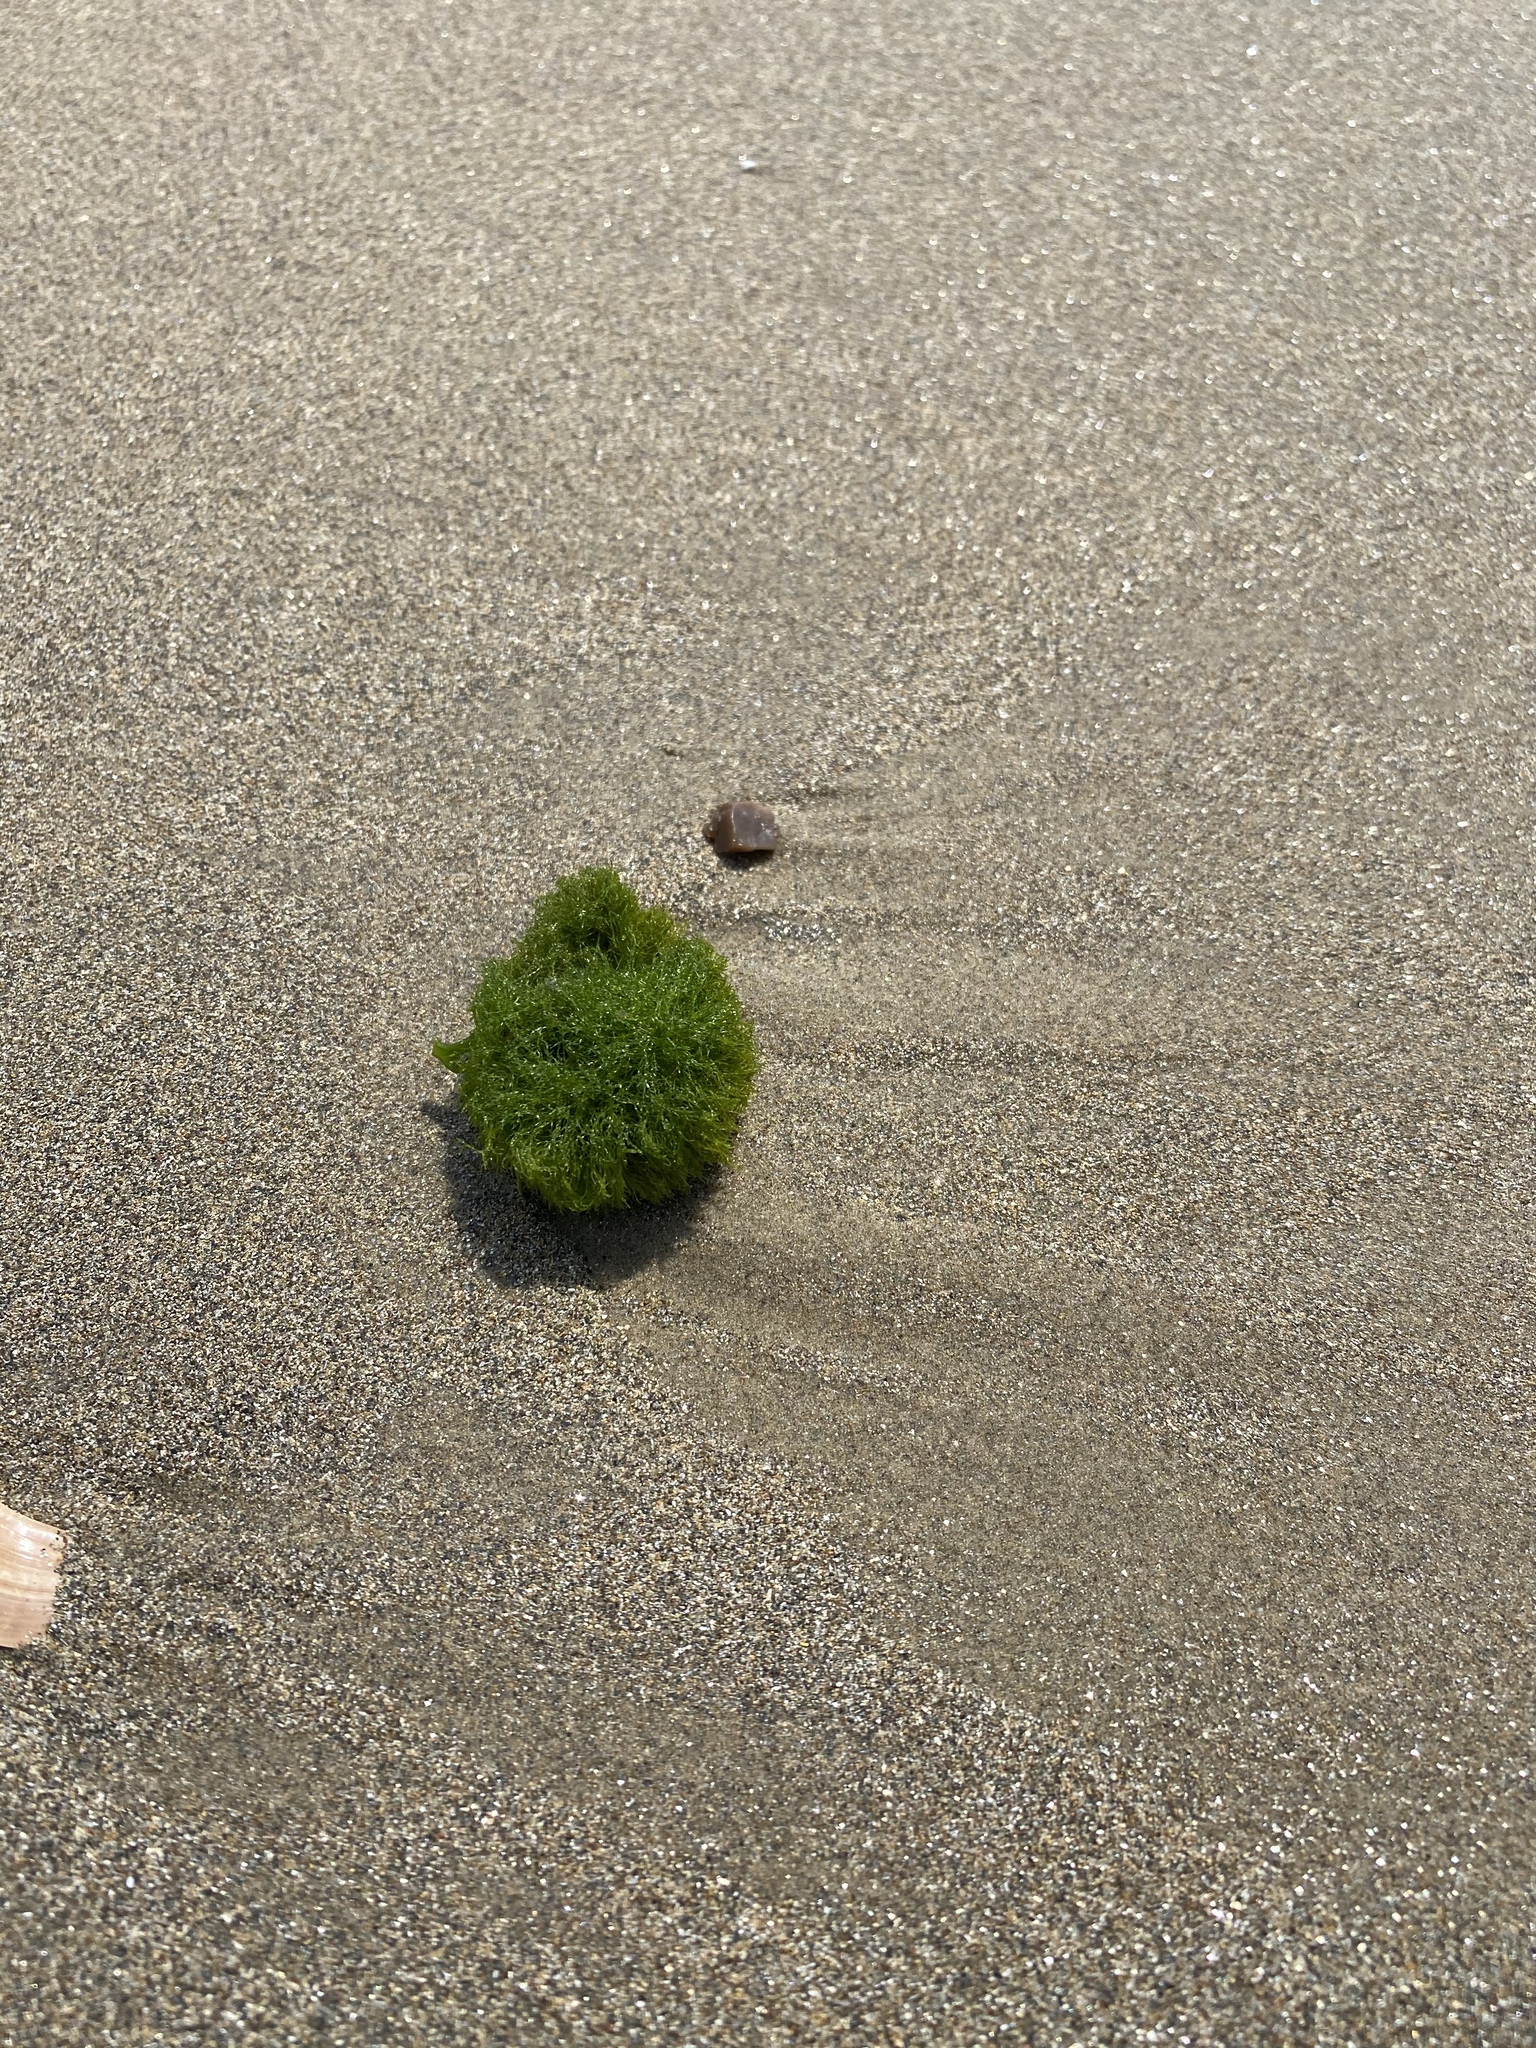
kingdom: Plantae
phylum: Chlorophyta
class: Ulvophyceae
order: Cladophorales
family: Cladophoraceae
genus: Cladophora
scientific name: Cladophora columbiana
